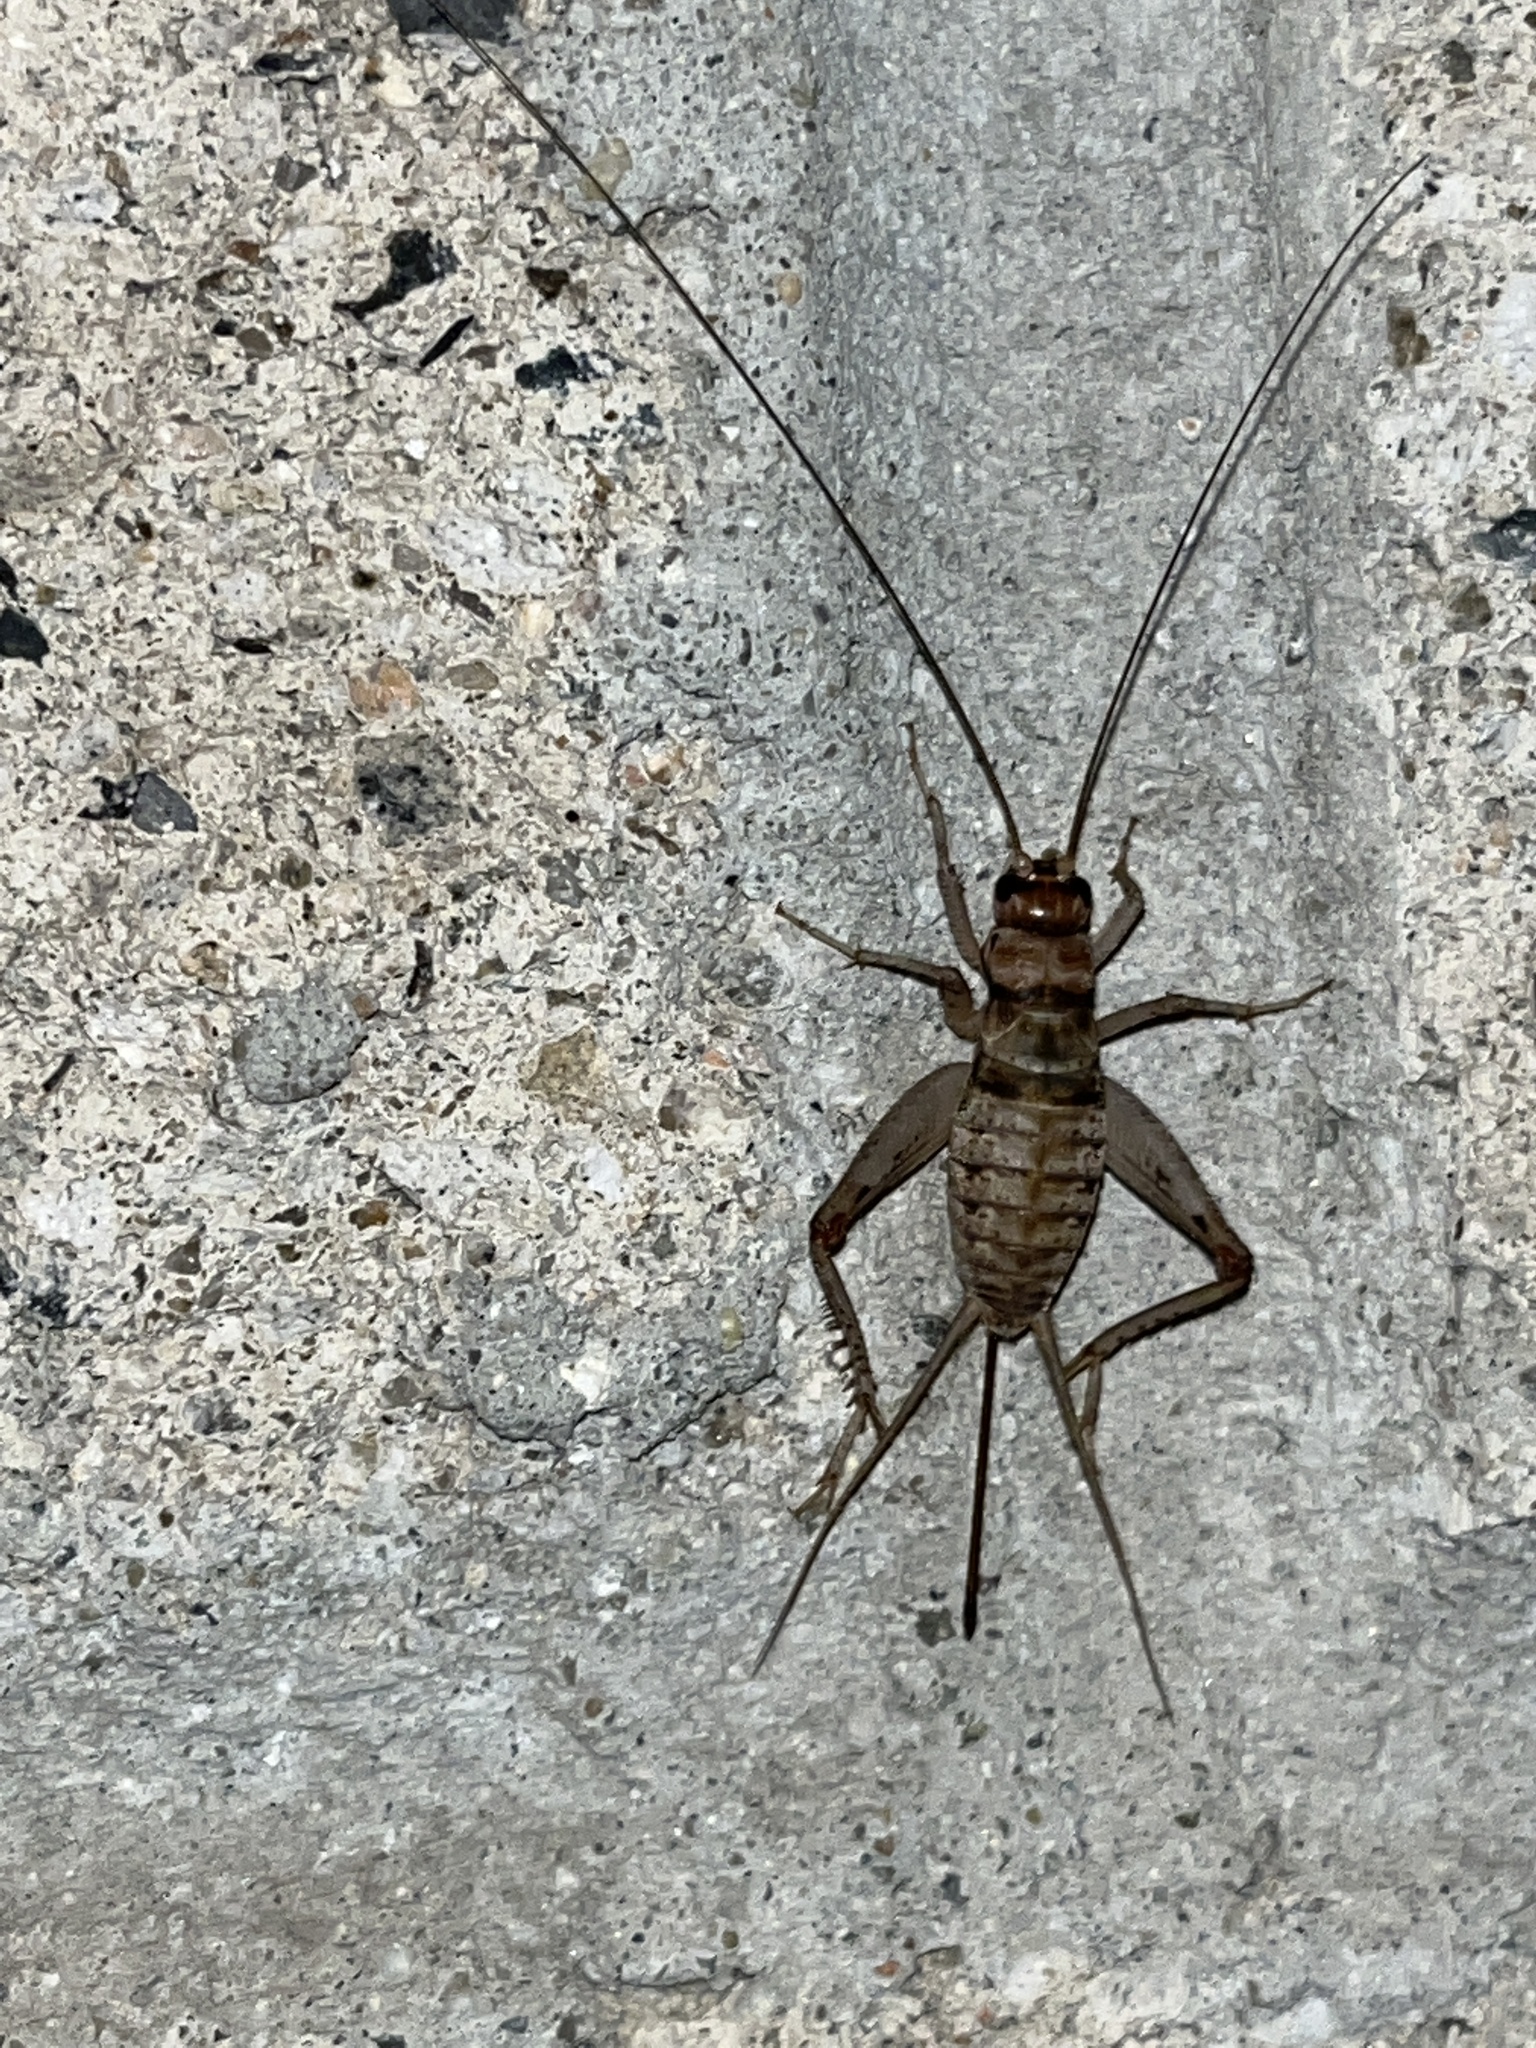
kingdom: Animalia
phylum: Arthropoda
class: Insecta
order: Orthoptera
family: Gryllidae
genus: Gryllodes
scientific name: Gryllodes sigillatus
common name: Tropical house cricket
